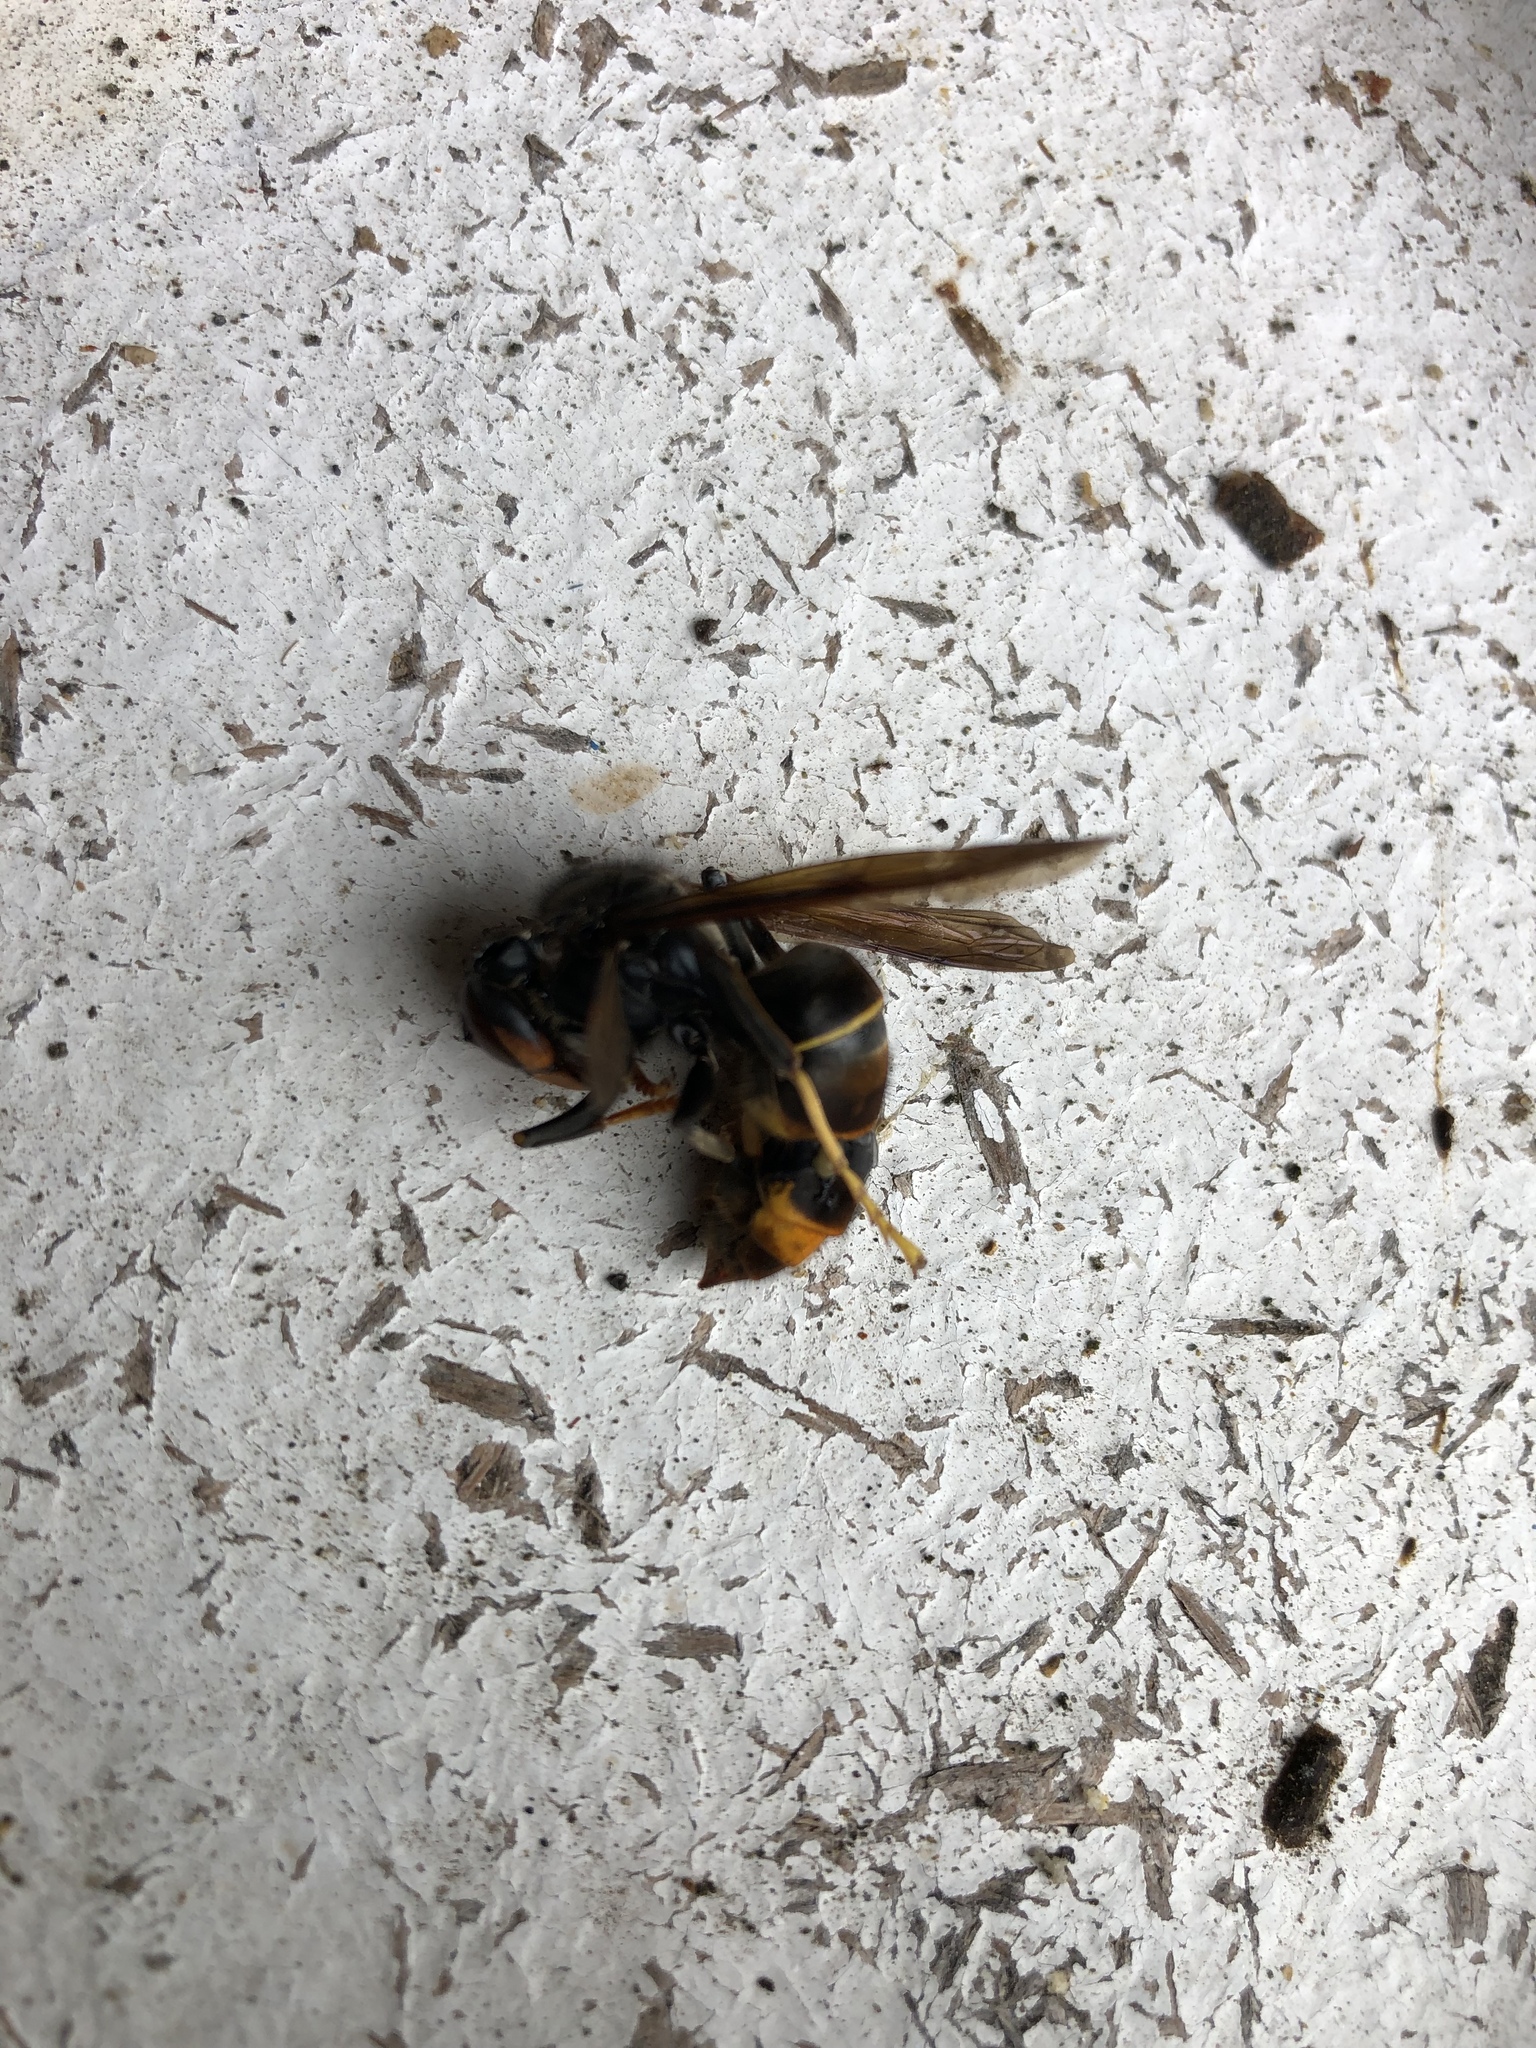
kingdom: Animalia
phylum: Arthropoda
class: Insecta
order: Hymenoptera
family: Vespidae
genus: Vespa
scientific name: Vespa velutina
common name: Asian hornet
